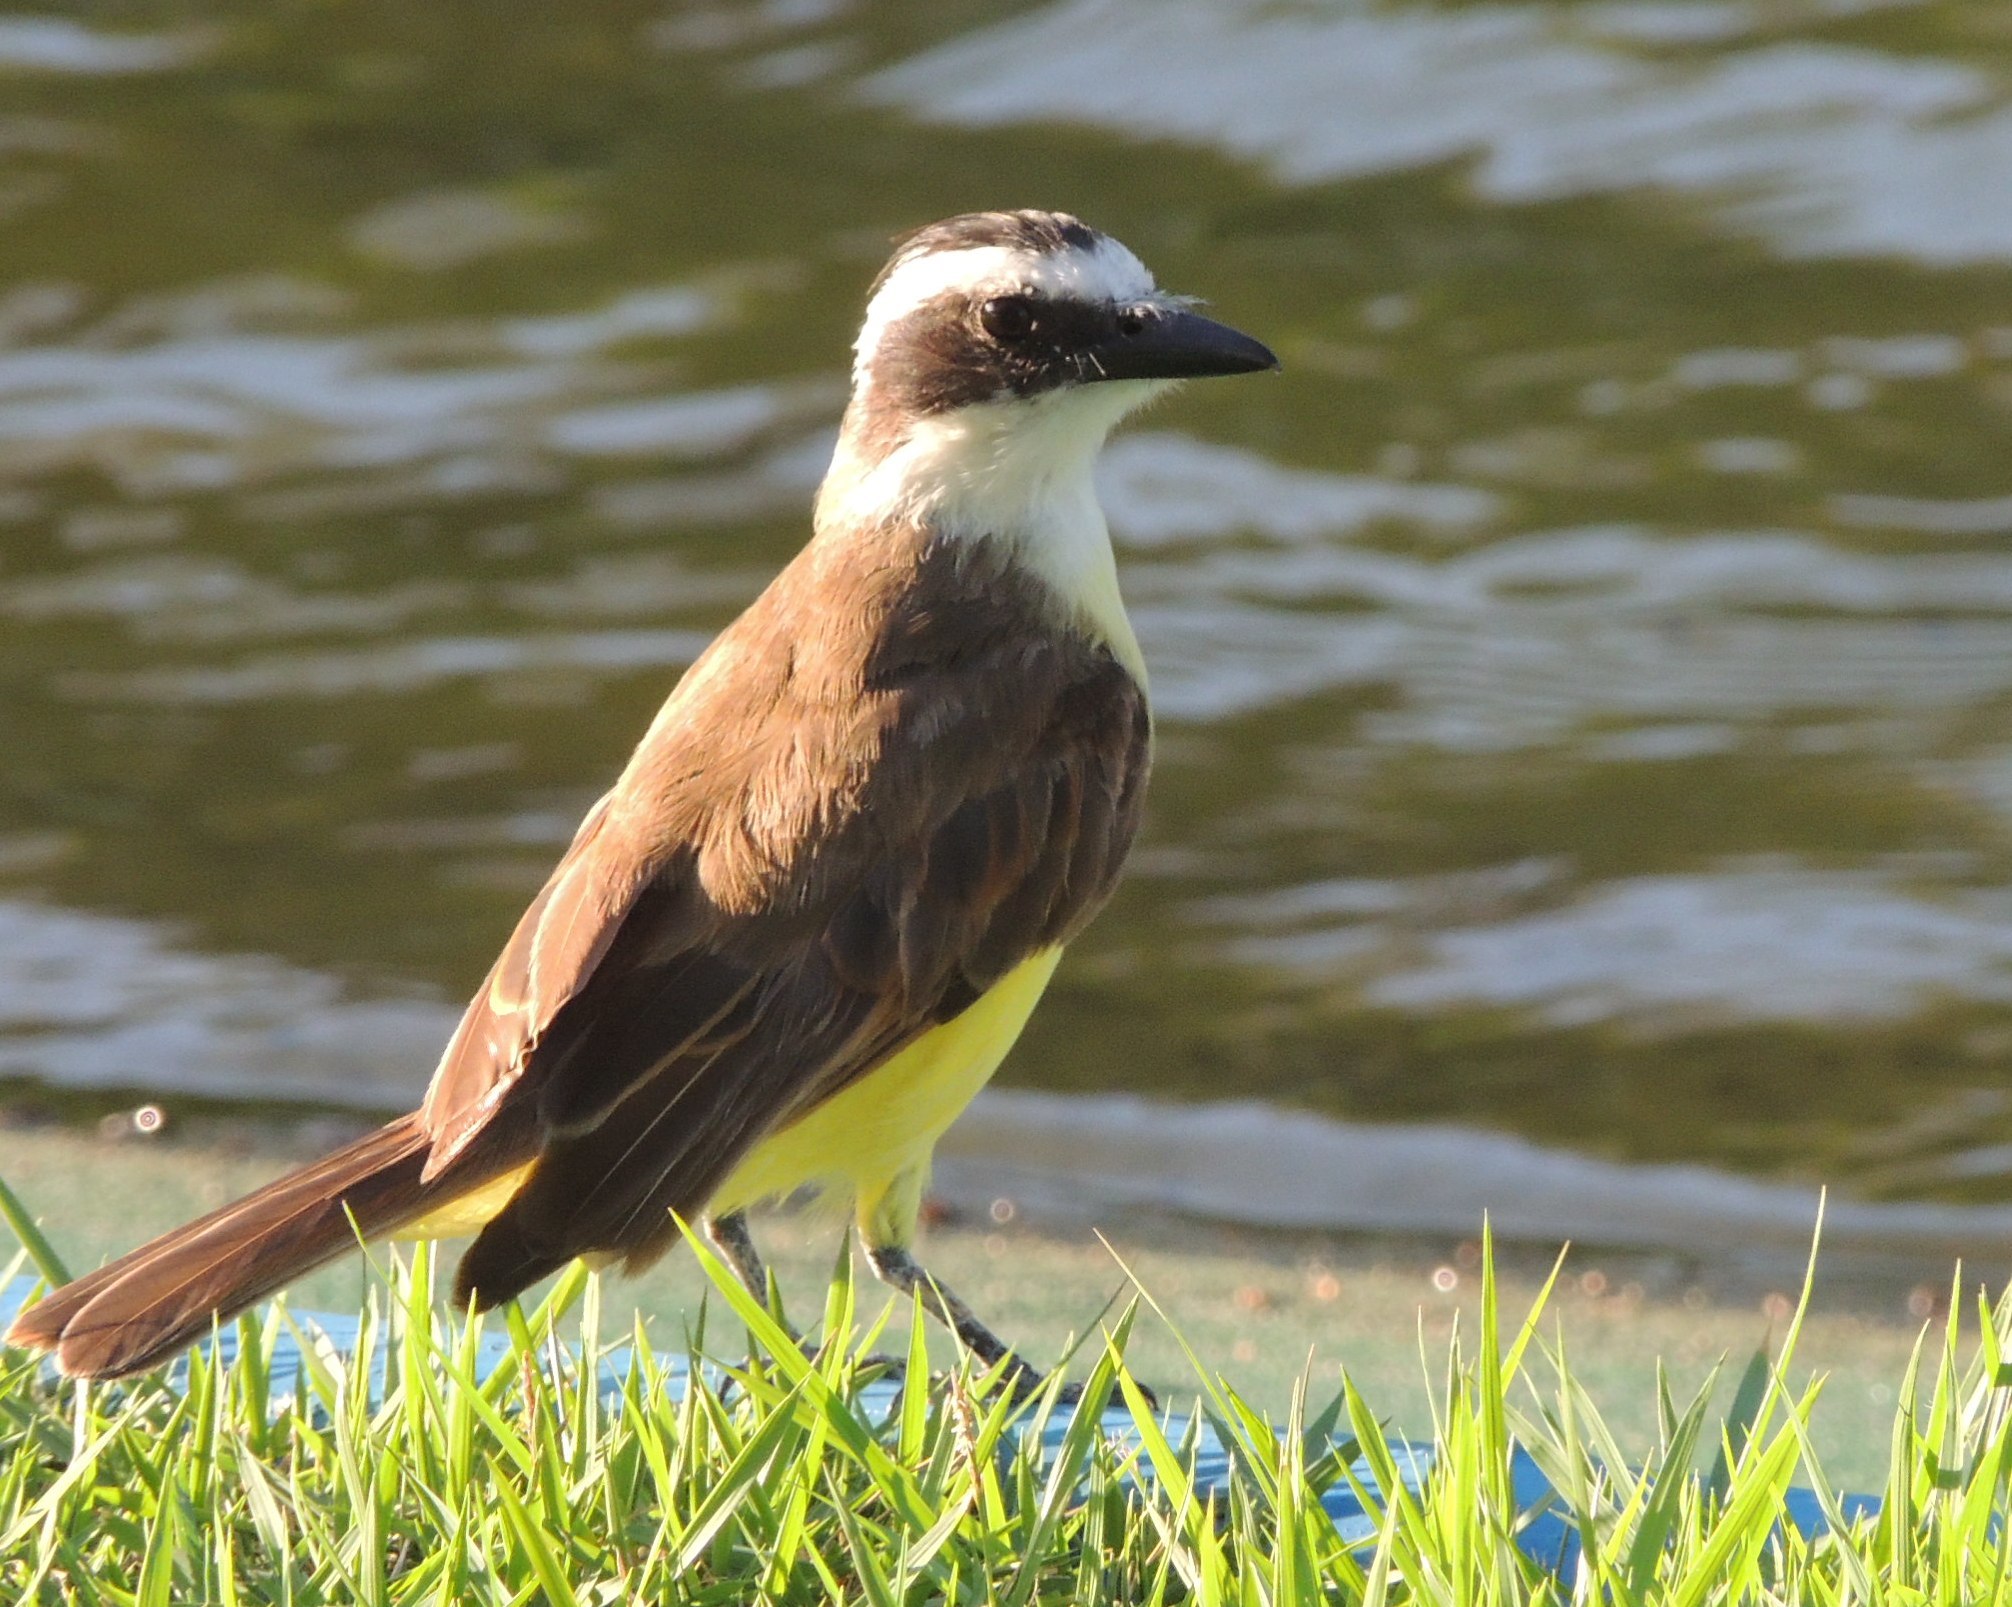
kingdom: Animalia
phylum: Chordata
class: Aves
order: Passeriformes
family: Tyrannidae
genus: Pitangus
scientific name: Pitangus sulphuratus
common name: Great kiskadee
